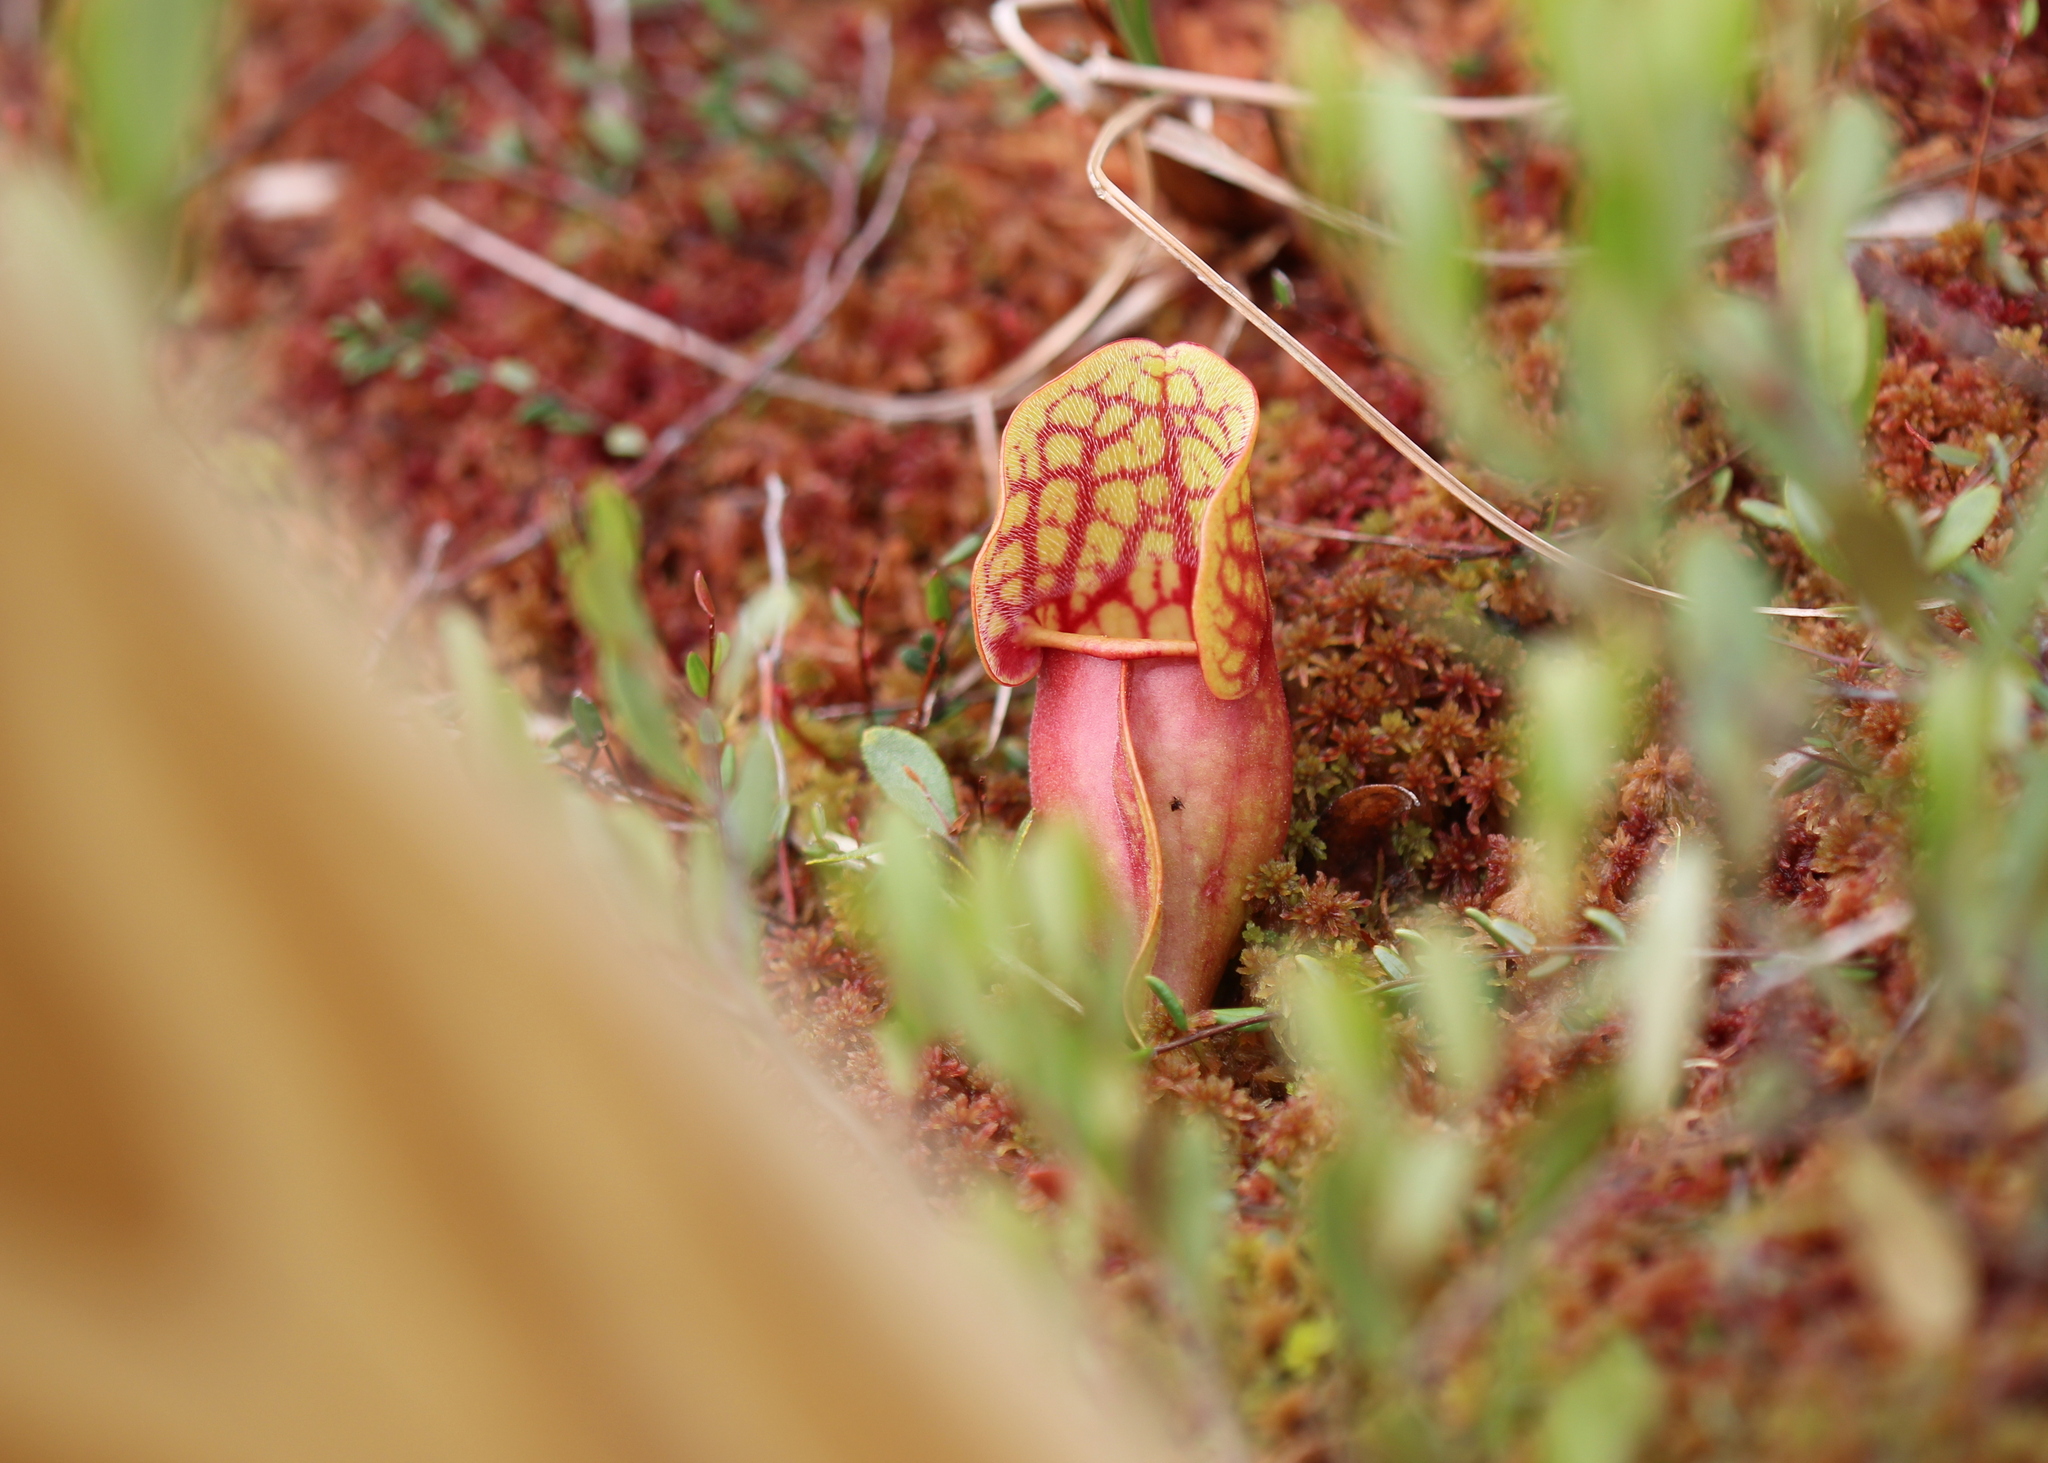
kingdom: Plantae
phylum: Tracheophyta
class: Magnoliopsida
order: Ericales
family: Sarraceniaceae
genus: Sarracenia
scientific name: Sarracenia purpurea
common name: Pitcherplant
